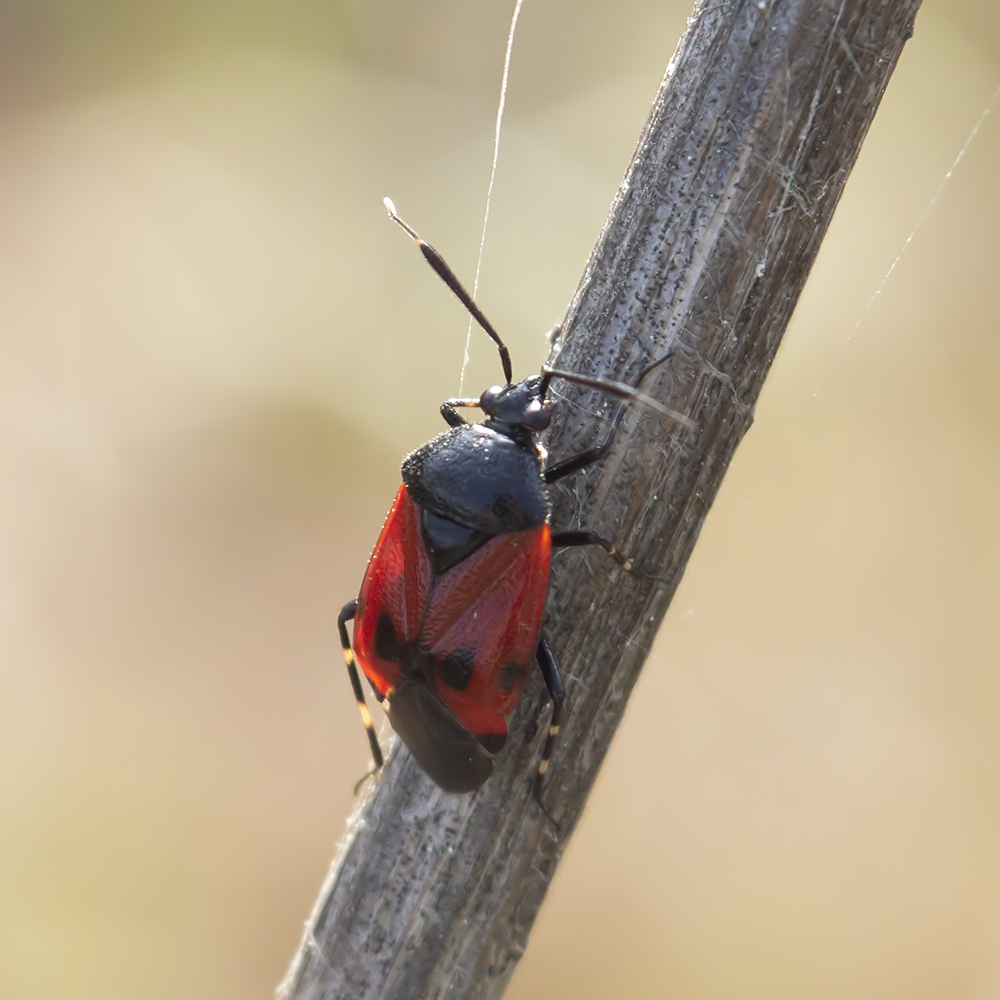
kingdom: Animalia
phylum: Arthropoda
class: Insecta
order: Hemiptera
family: Miridae
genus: Deraeocoris
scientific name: Deraeocoris rutilus
